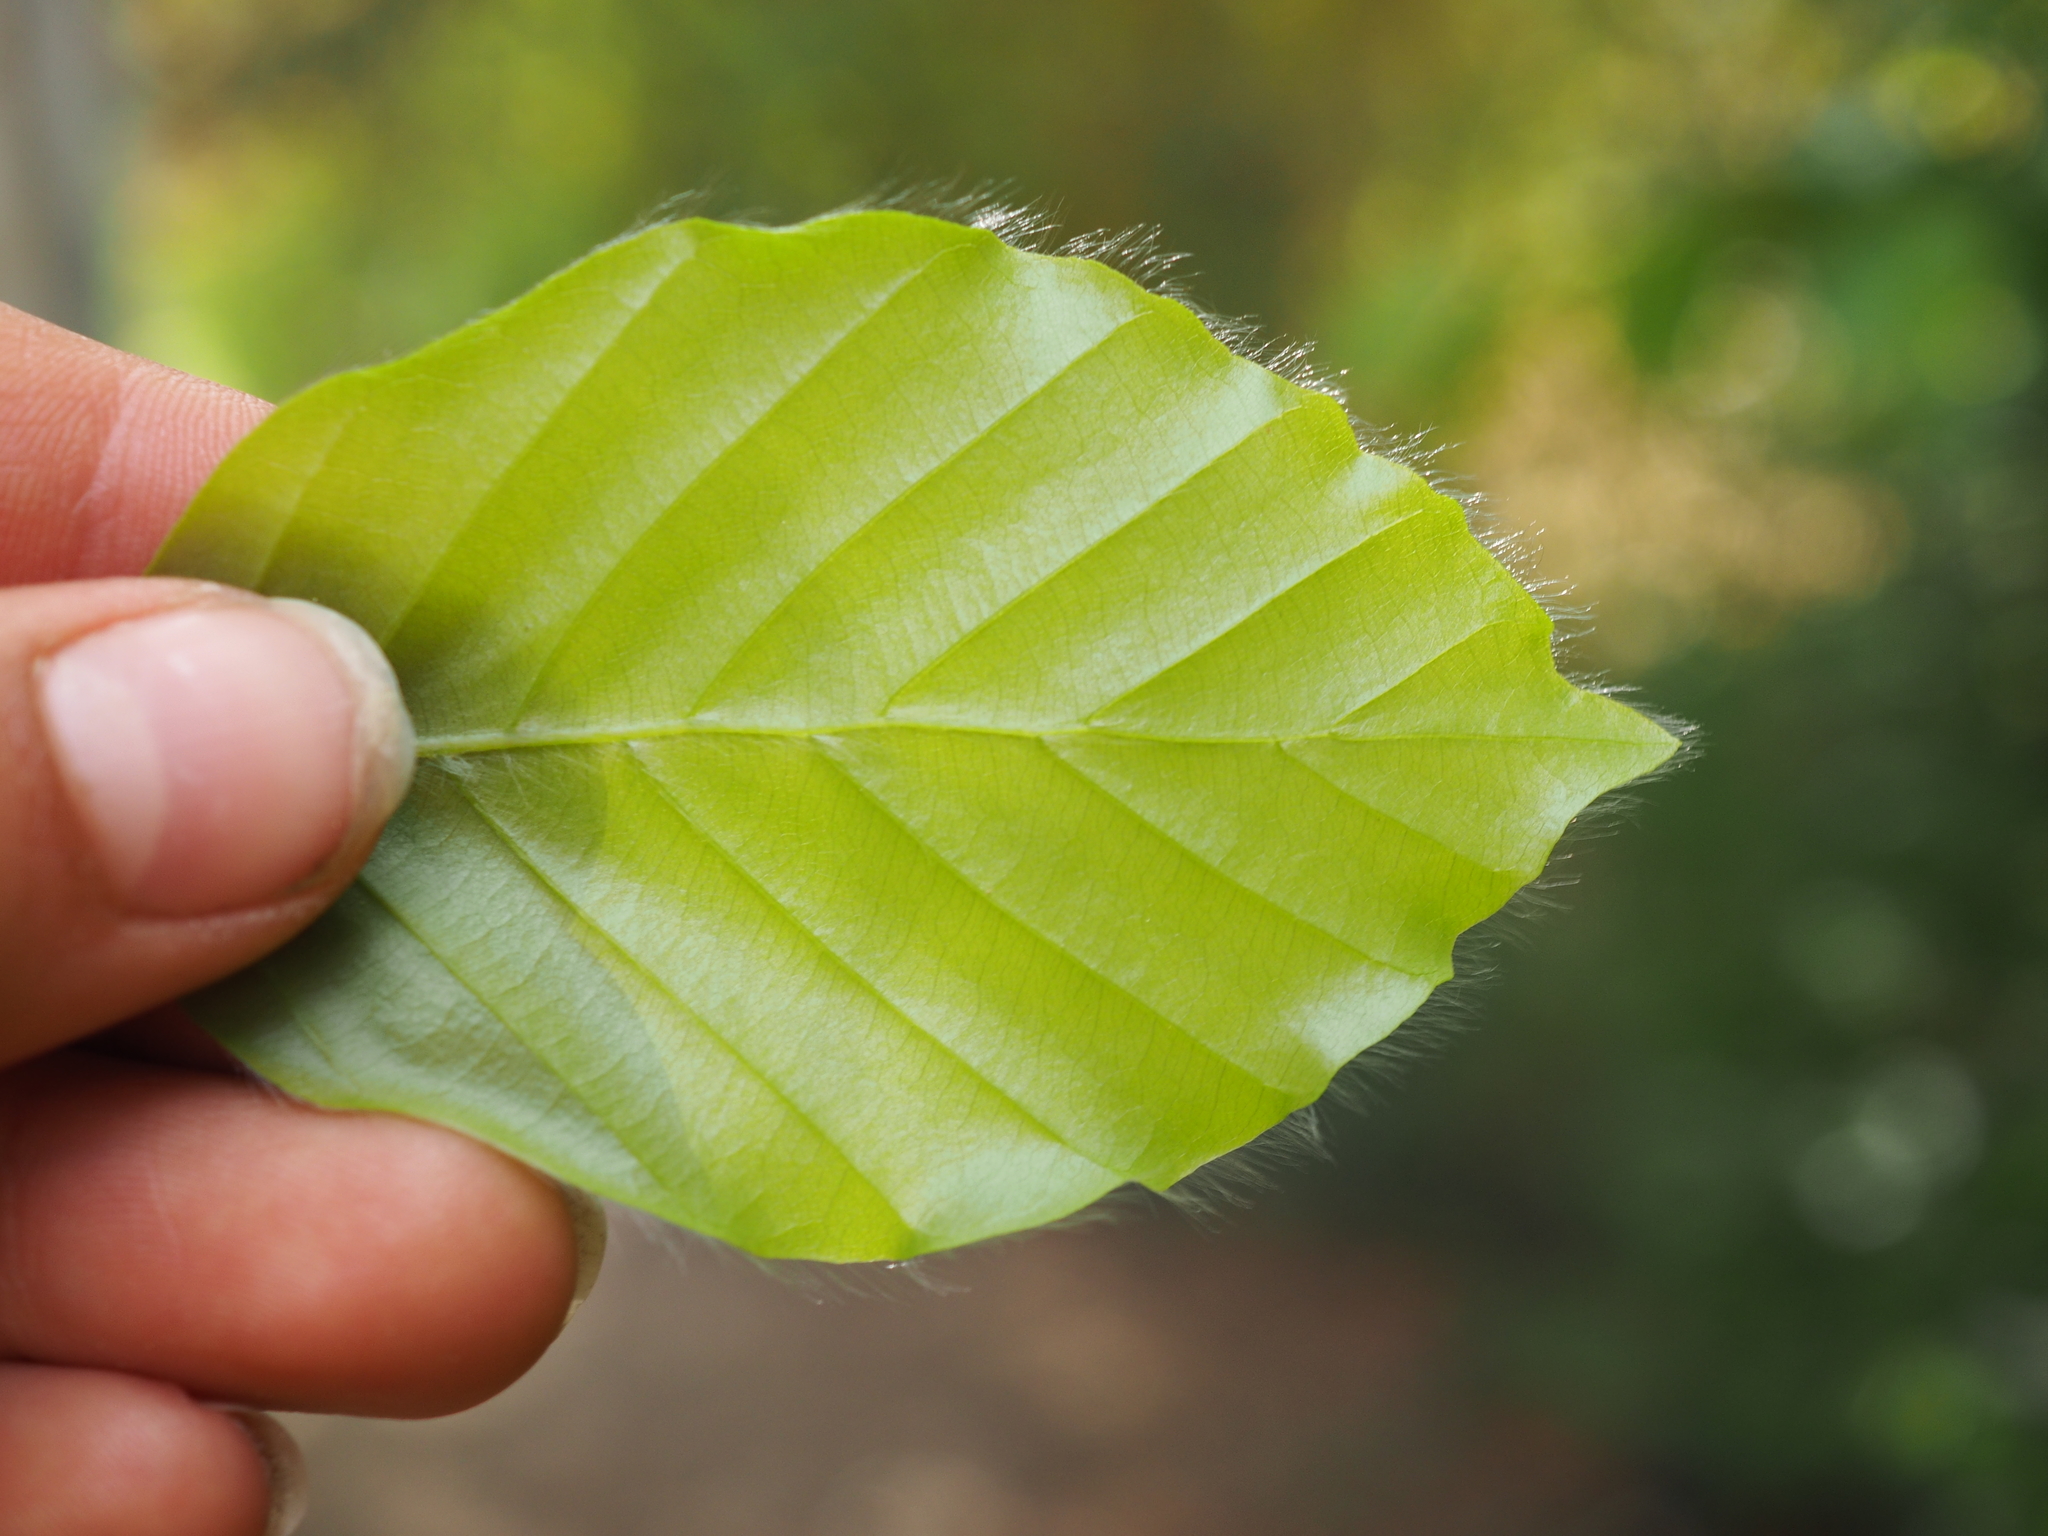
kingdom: Plantae
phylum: Tracheophyta
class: Magnoliopsida
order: Fagales
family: Fagaceae
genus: Fagus
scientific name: Fagus sylvatica
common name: Beech
